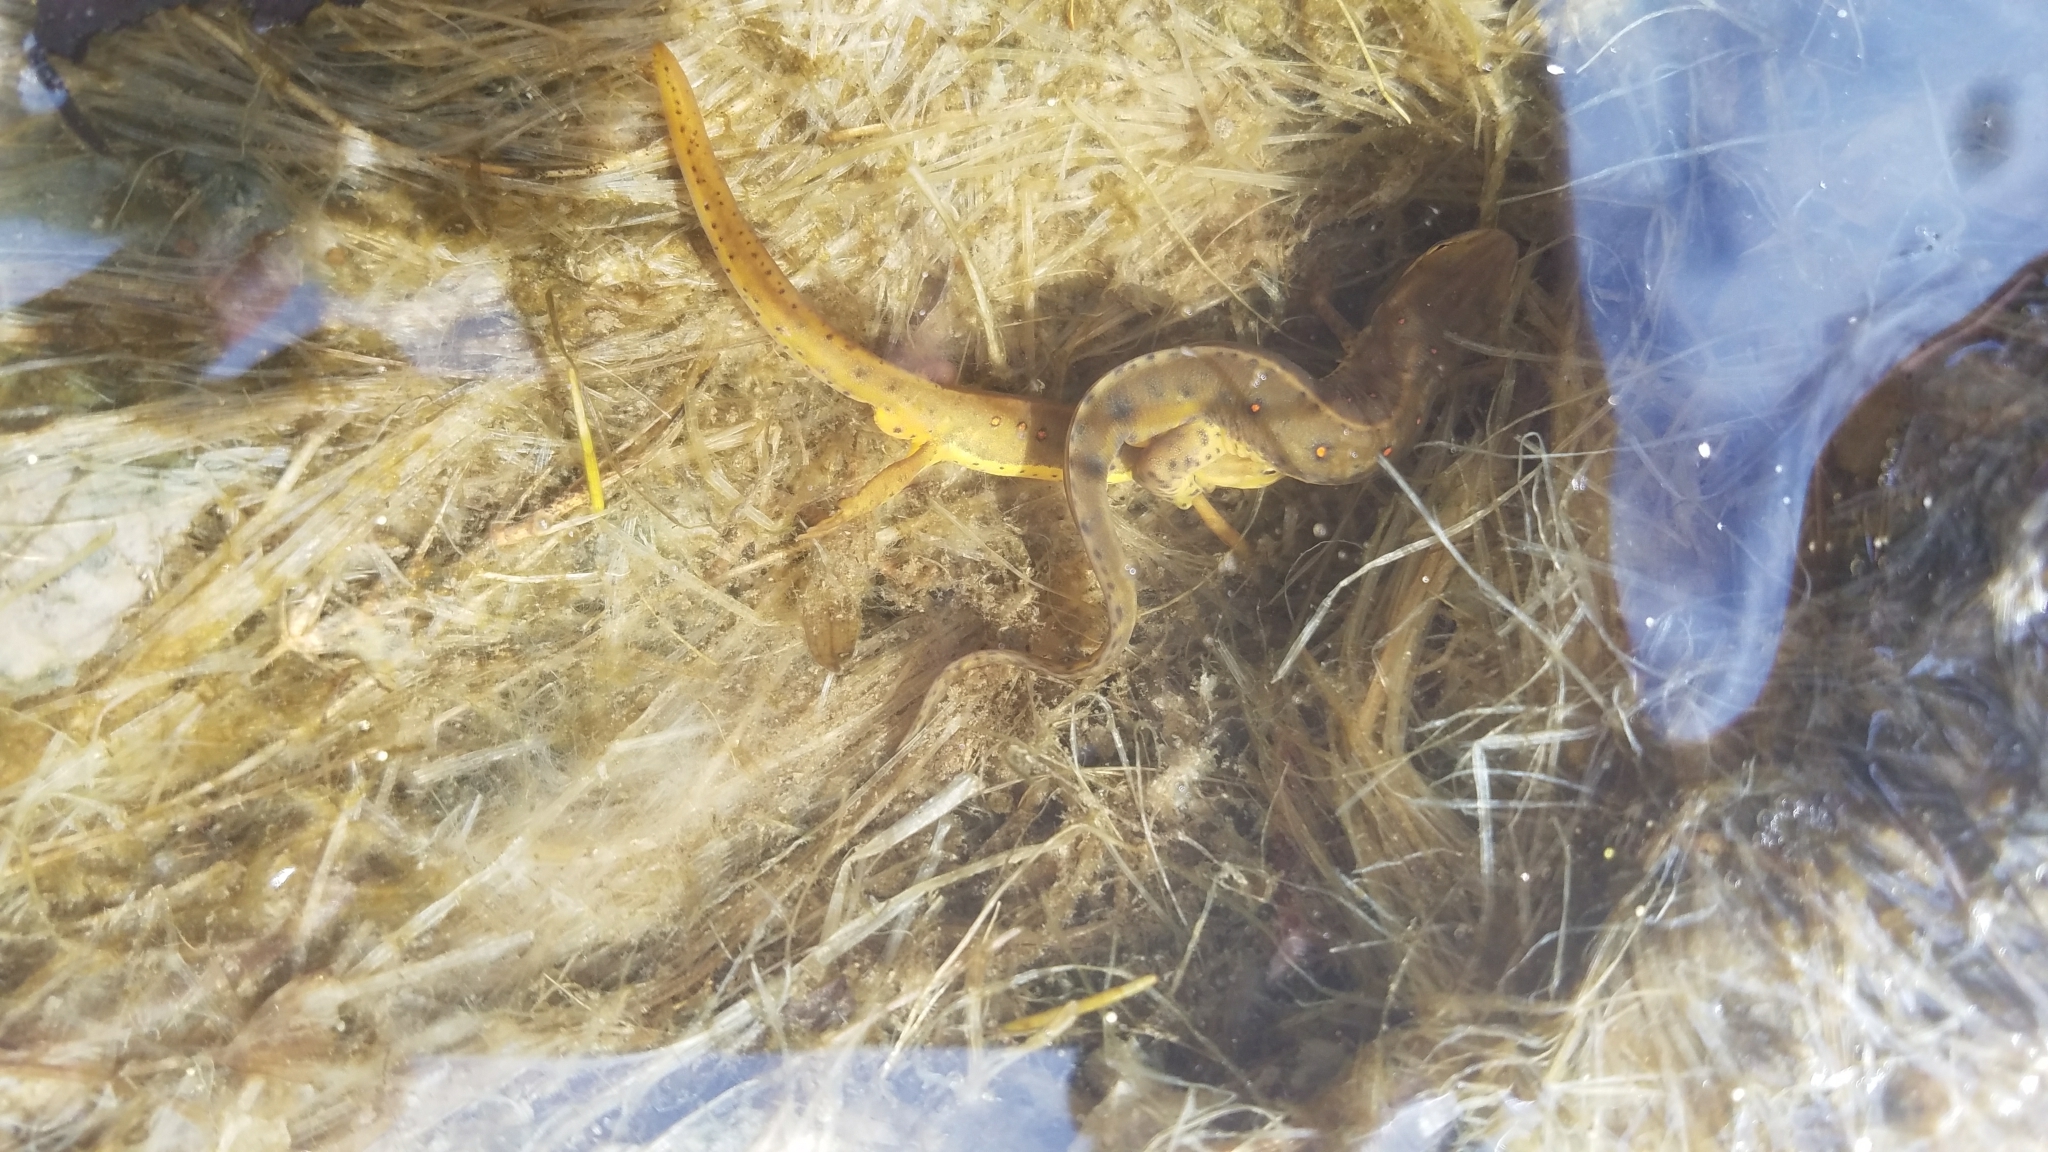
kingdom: Animalia
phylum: Chordata
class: Amphibia
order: Caudata
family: Salamandridae
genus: Notophthalmus
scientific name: Notophthalmus viridescens
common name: Eastern newt
